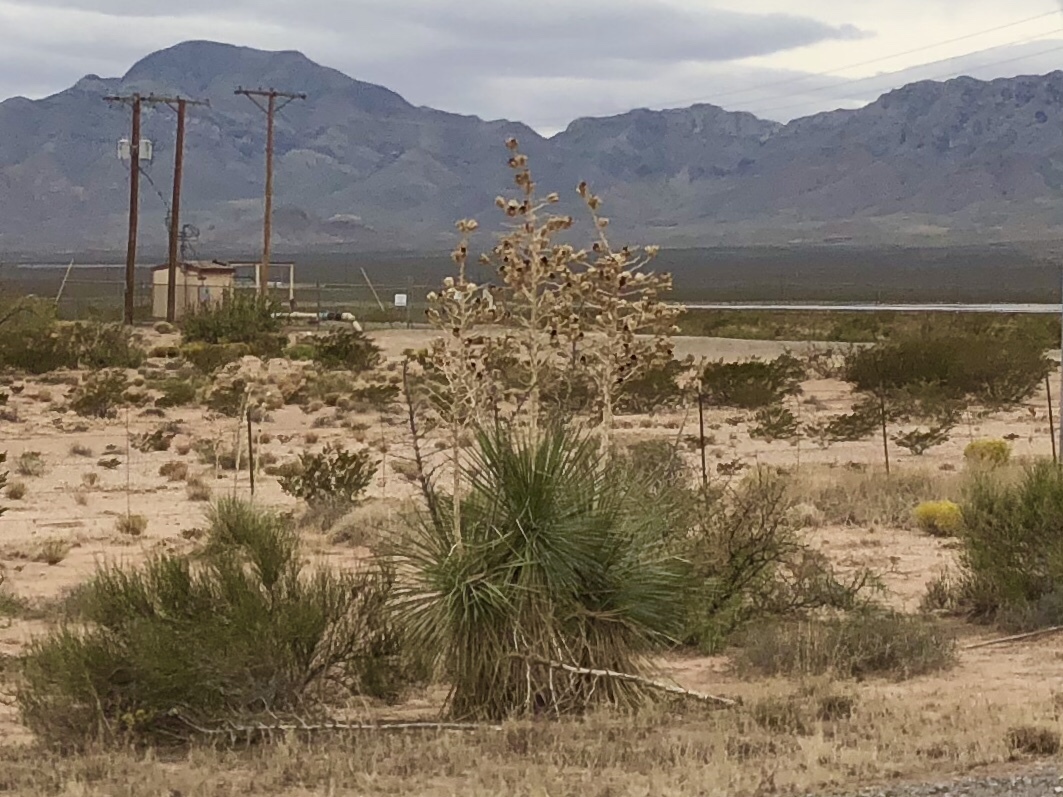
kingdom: Plantae
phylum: Tracheophyta
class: Liliopsida
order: Asparagales
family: Asparagaceae
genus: Yucca
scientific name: Yucca elata
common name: Palmella
